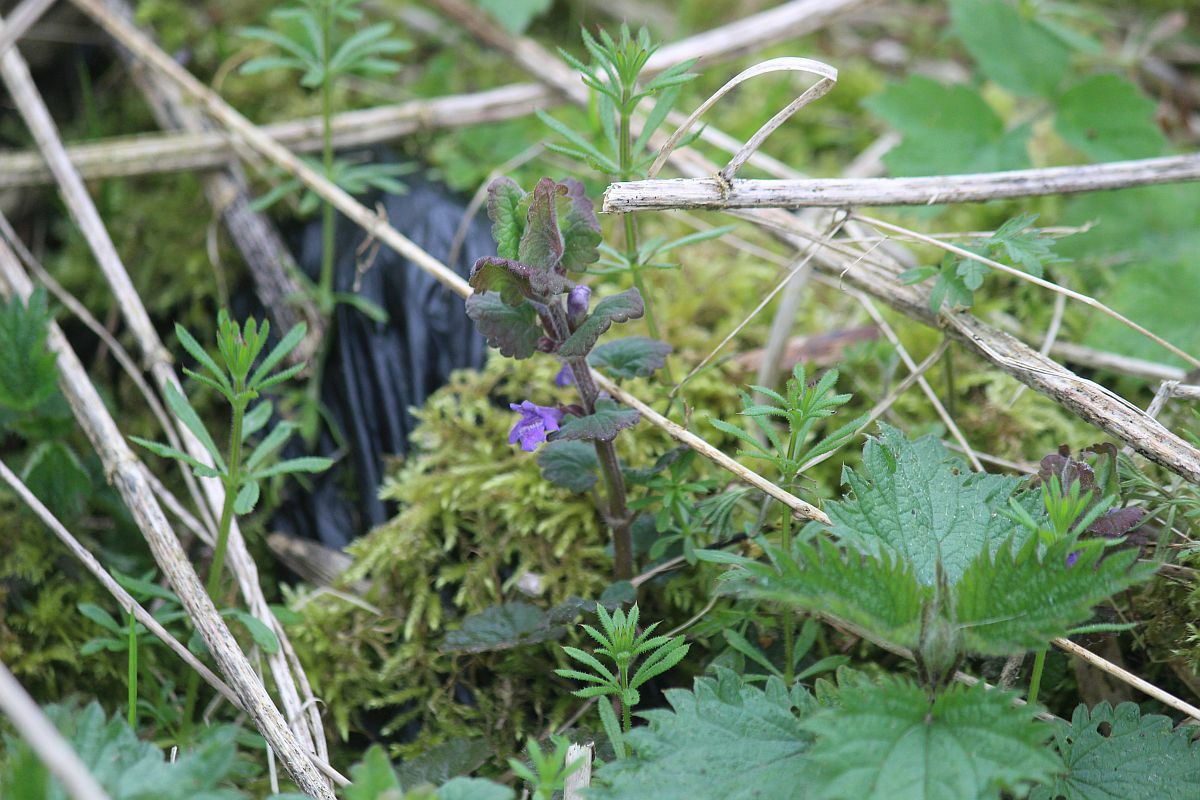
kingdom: Plantae
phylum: Tracheophyta
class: Magnoliopsida
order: Lamiales
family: Lamiaceae
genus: Glechoma
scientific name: Glechoma hederacea
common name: Ground ivy
